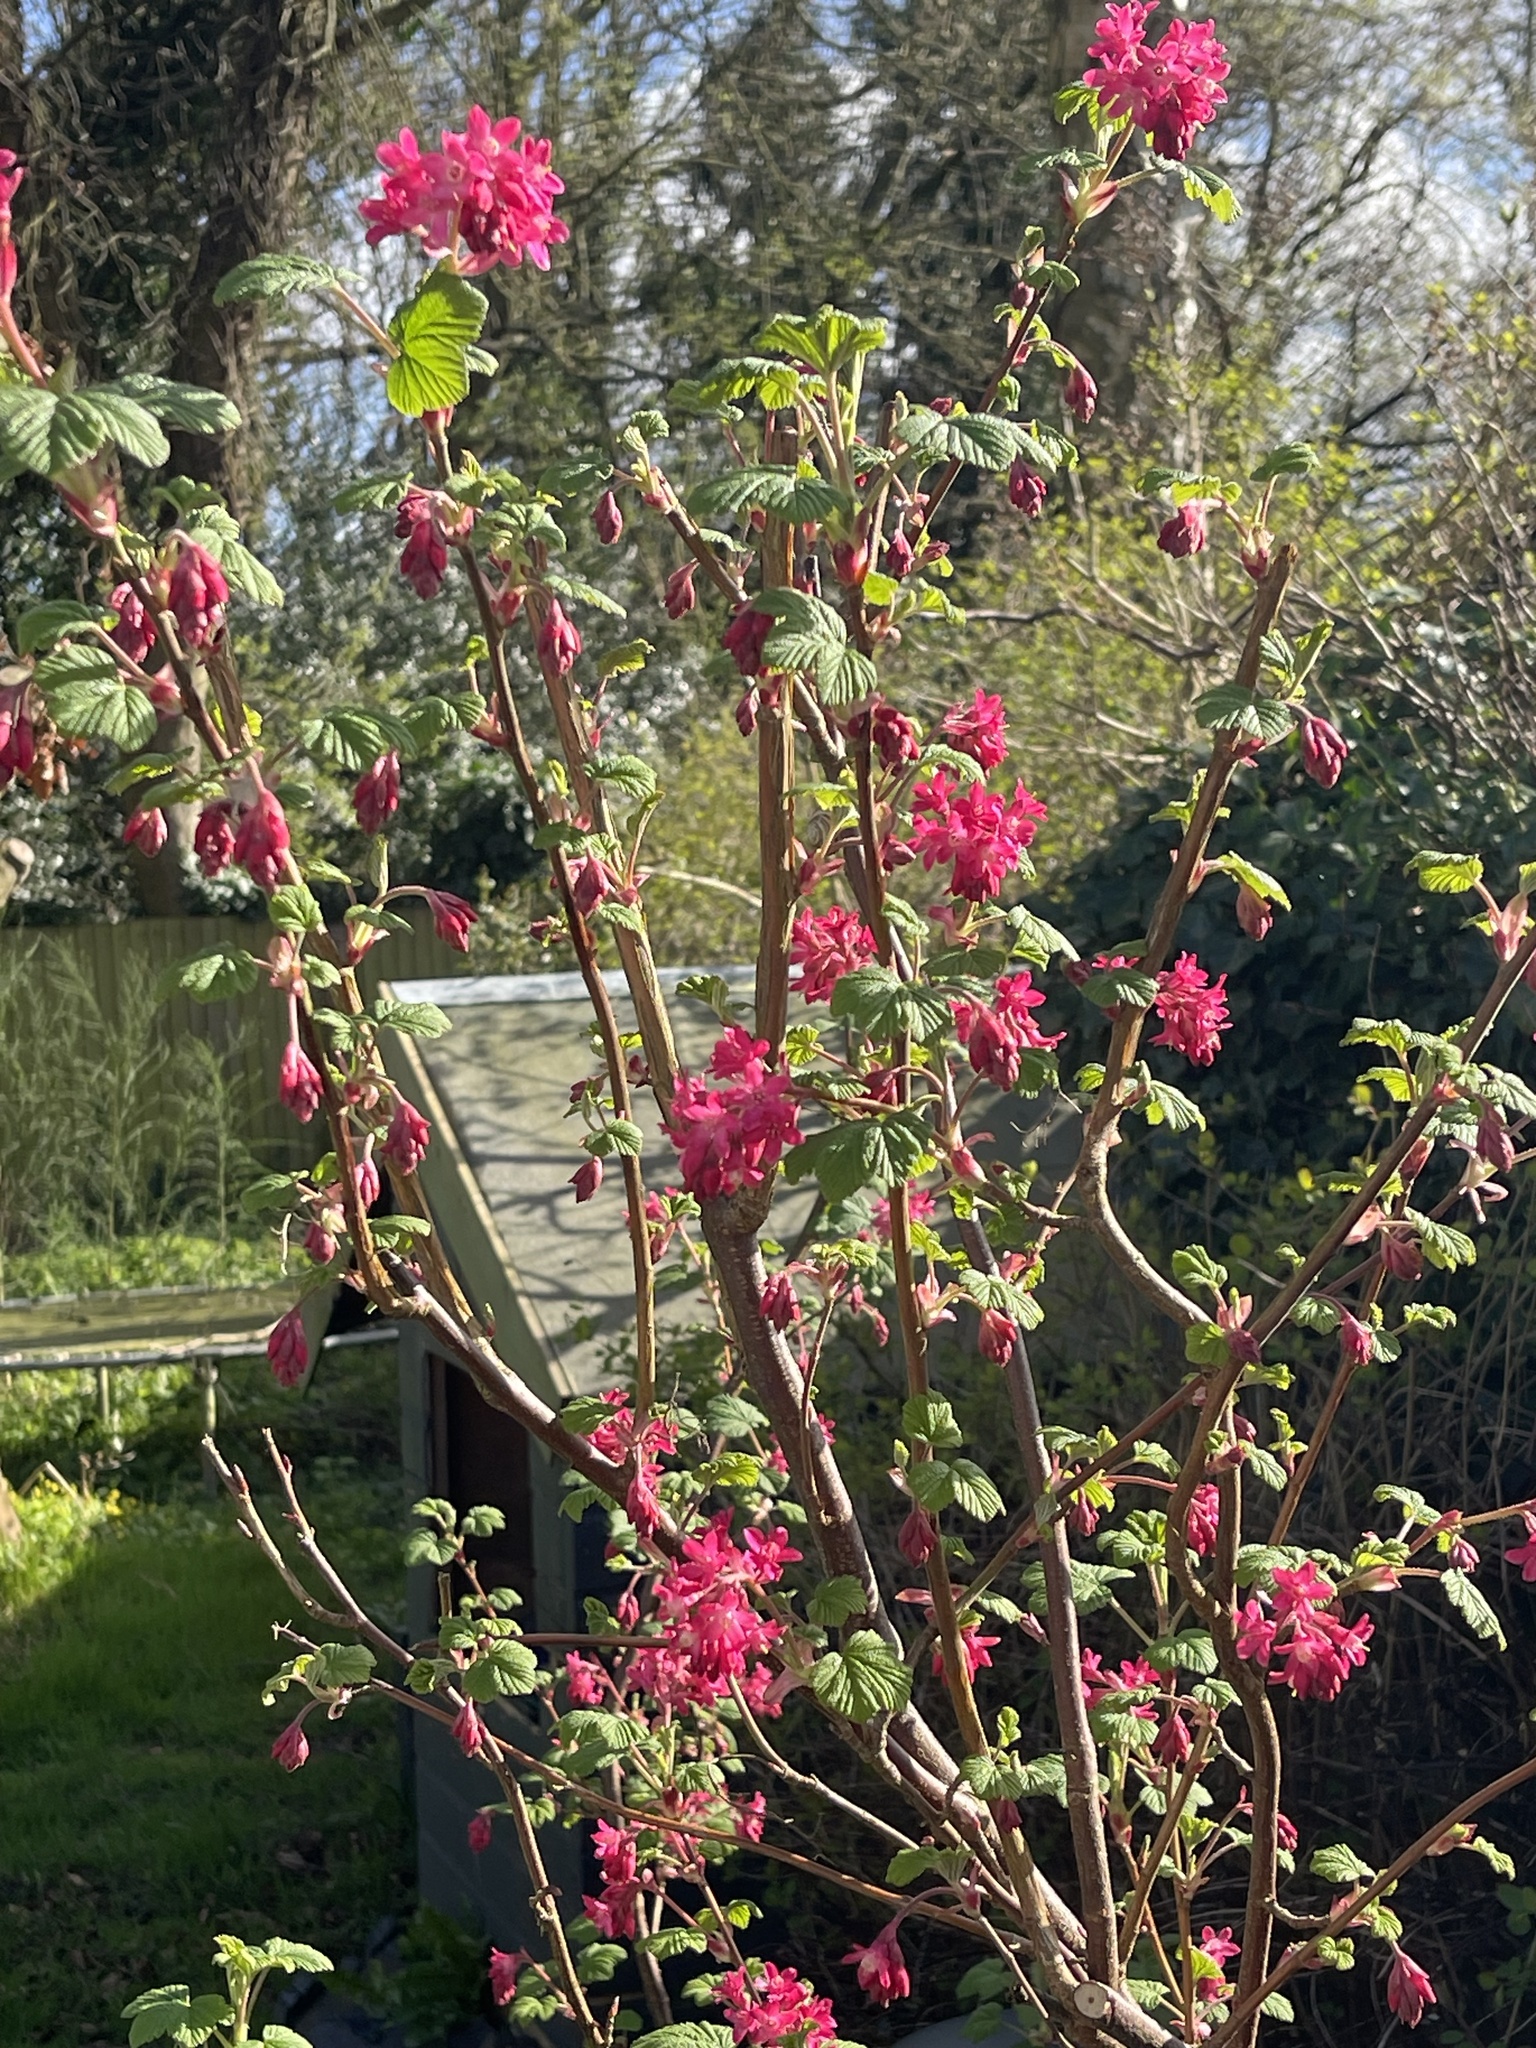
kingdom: Plantae
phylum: Tracheophyta
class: Magnoliopsida
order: Saxifragales
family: Grossulariaceae
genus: Ribes
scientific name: Ribes sanguineum
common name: Flowering currant
